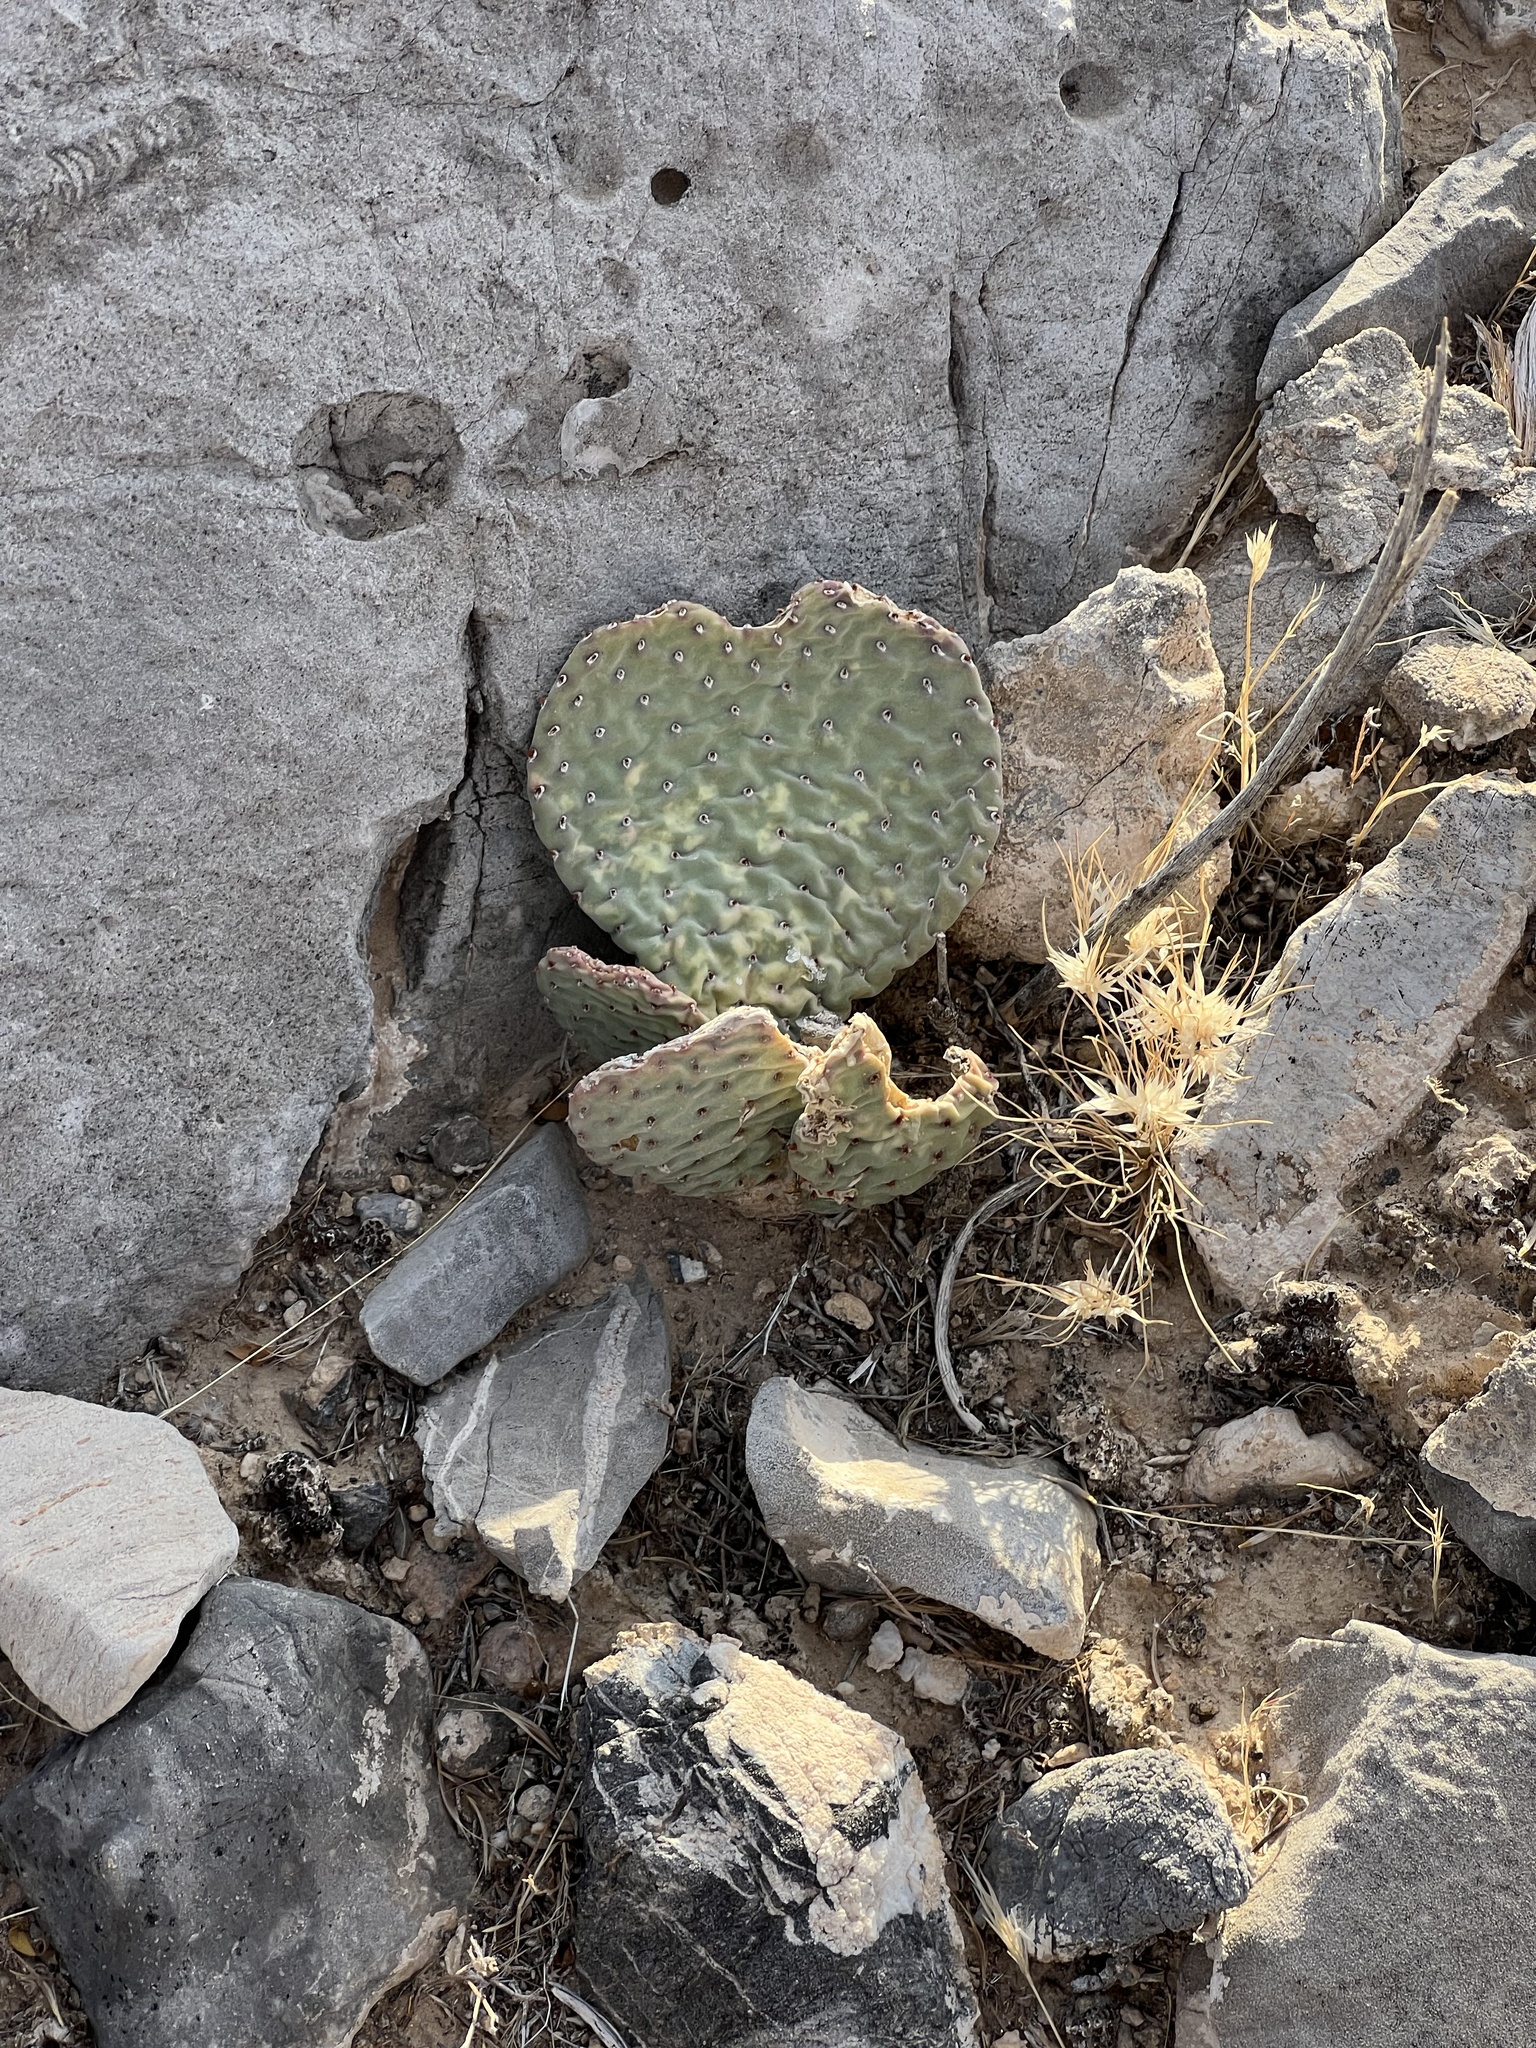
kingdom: Plantae
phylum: Tracheophyta
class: Magnoliopsida
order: Caryophyllales
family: Cactaceae
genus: Opuntia
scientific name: Opuntia basilaris
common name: Beavertail prickly-pear
